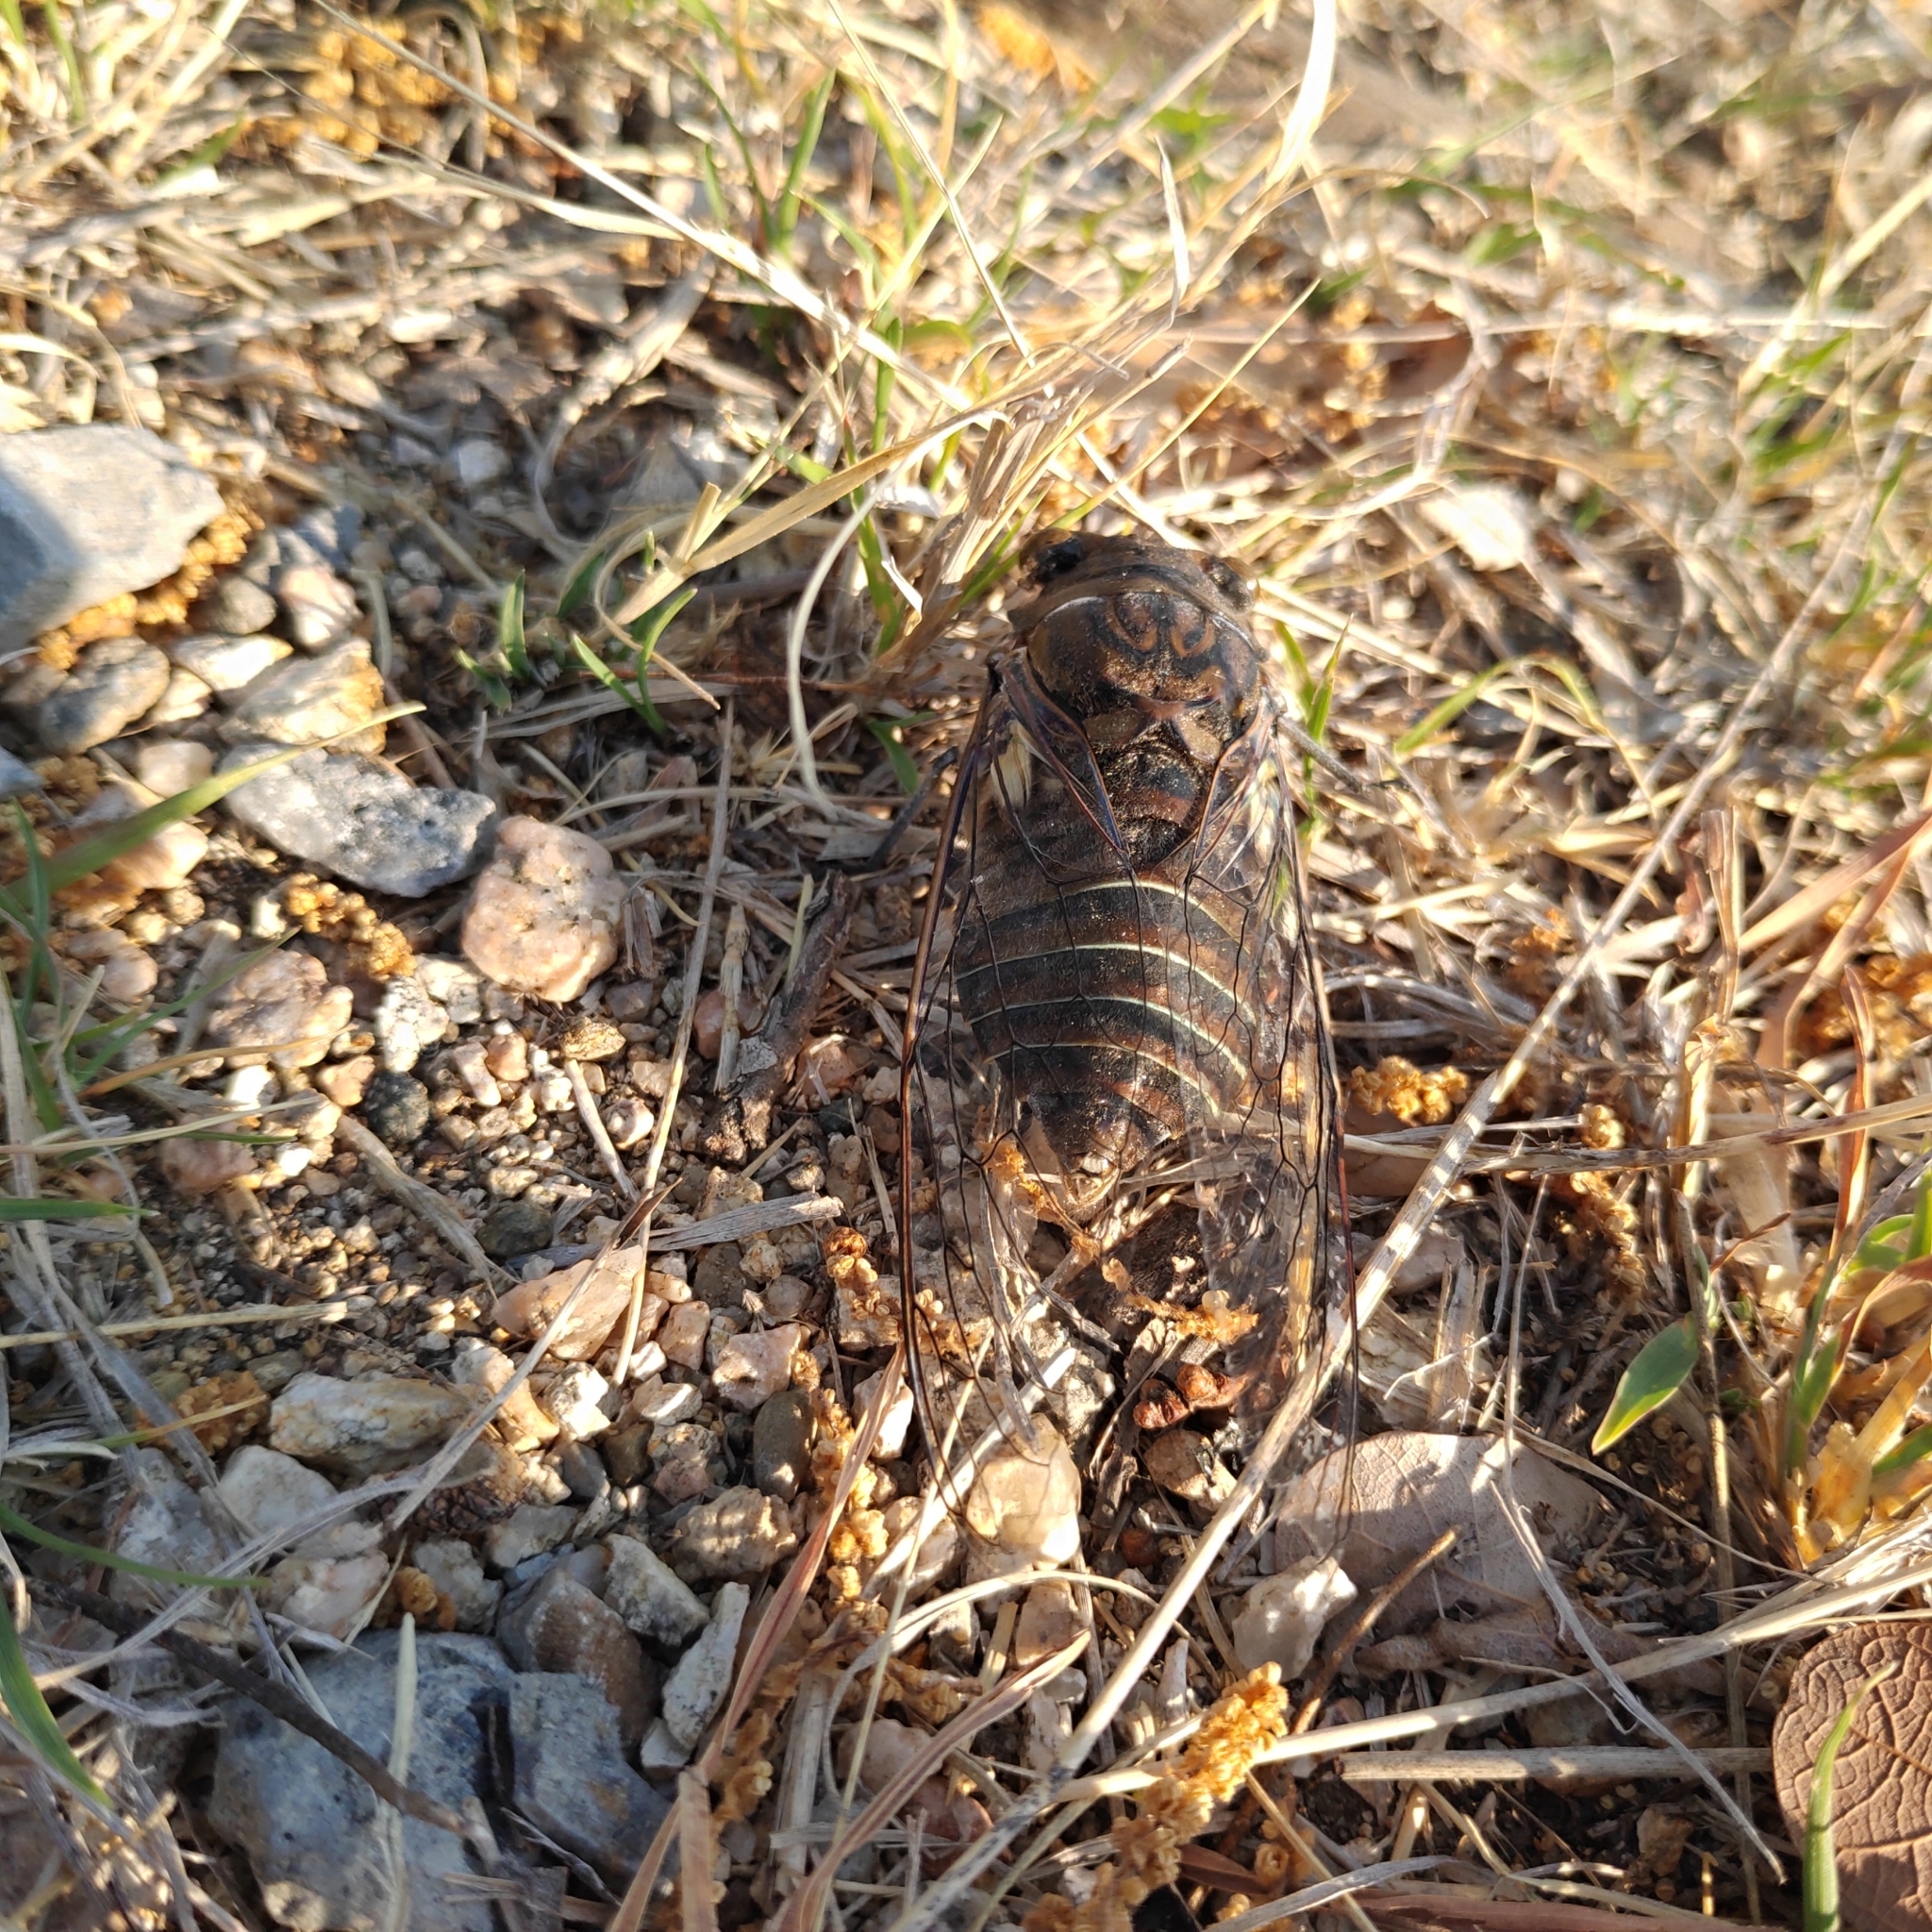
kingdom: Animalia
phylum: Arthropoda
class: Insecta
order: Hemiptera
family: Cicadidae
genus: Quesada
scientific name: Quesada gigas
